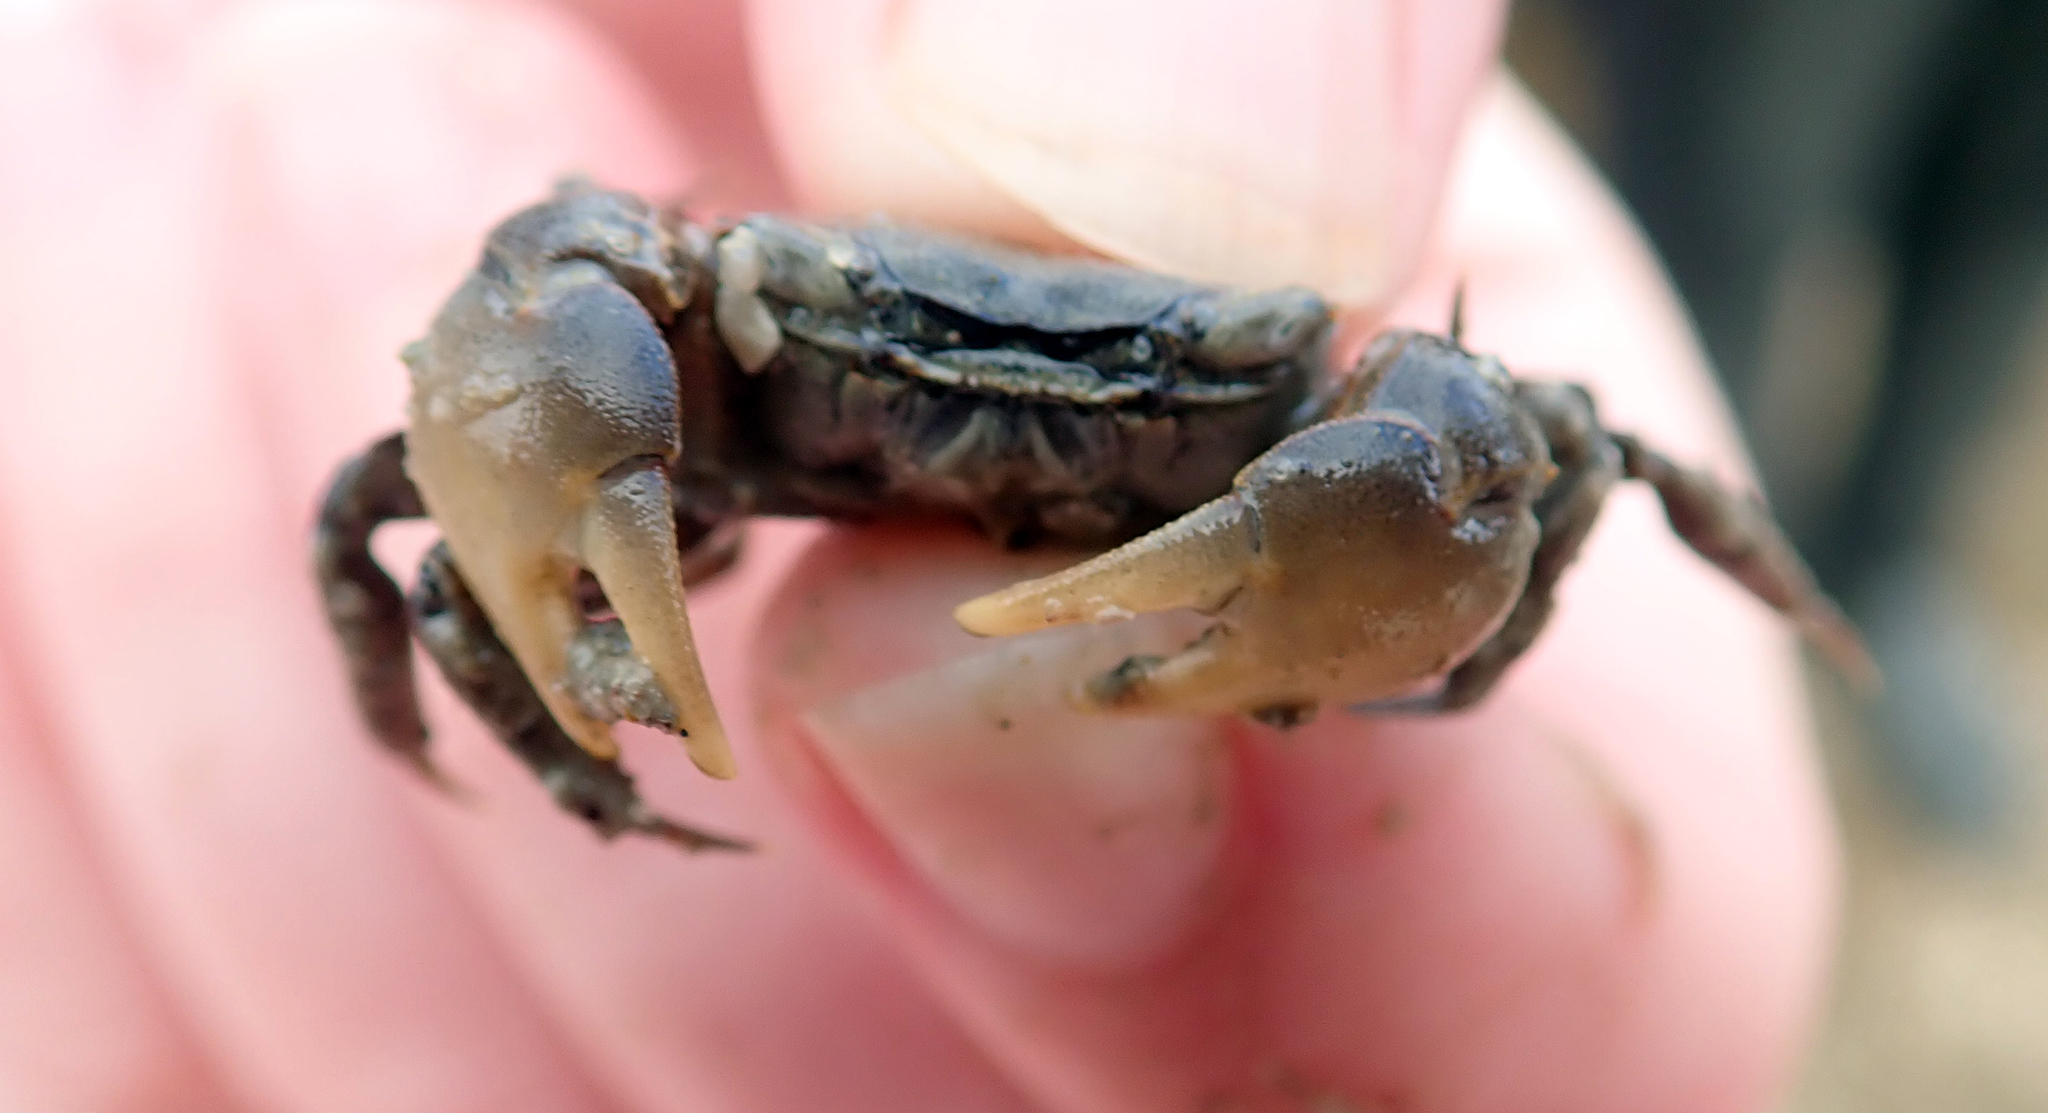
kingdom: Animalia
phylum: Arthropoda
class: Malacostraca
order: Decapoda
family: Varunidae
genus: Austrohelice
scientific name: Austrohelice crassa
